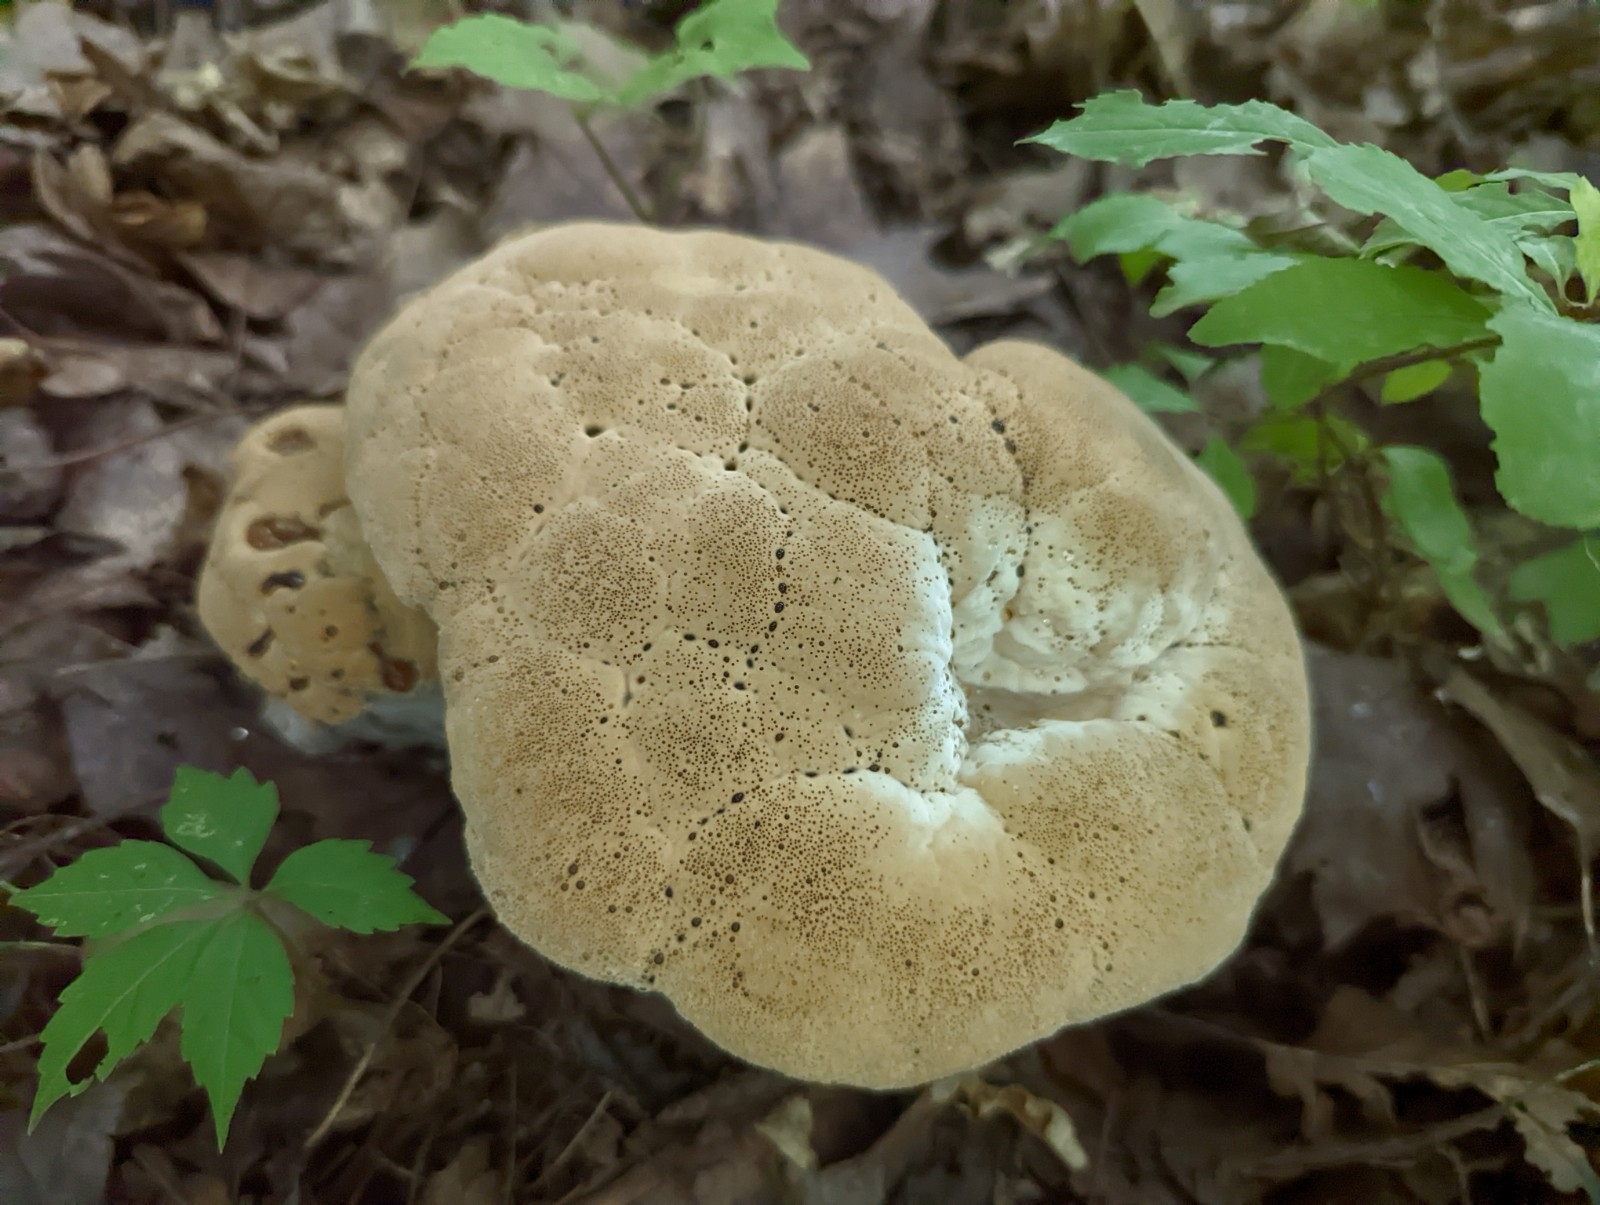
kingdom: Fungi
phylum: Basidiomycota
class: Agaricomycetes
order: Hymenochaetales
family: Hymenochaetaceae
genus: Pseudoinonotus
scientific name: Pseudoinonotus dryadeus
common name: Oak bracket
